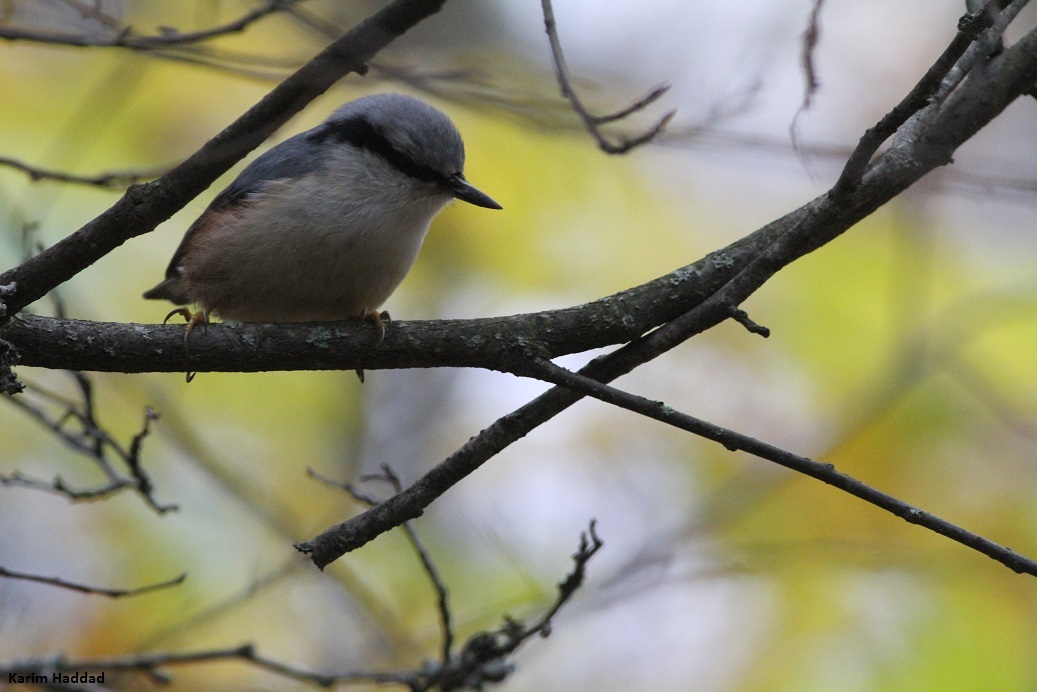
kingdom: Animalia
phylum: Chordata
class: Aves
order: Passeriformes
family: Sittidae
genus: Sitta
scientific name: Sitta europaea
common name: Eurasian nuthatch
